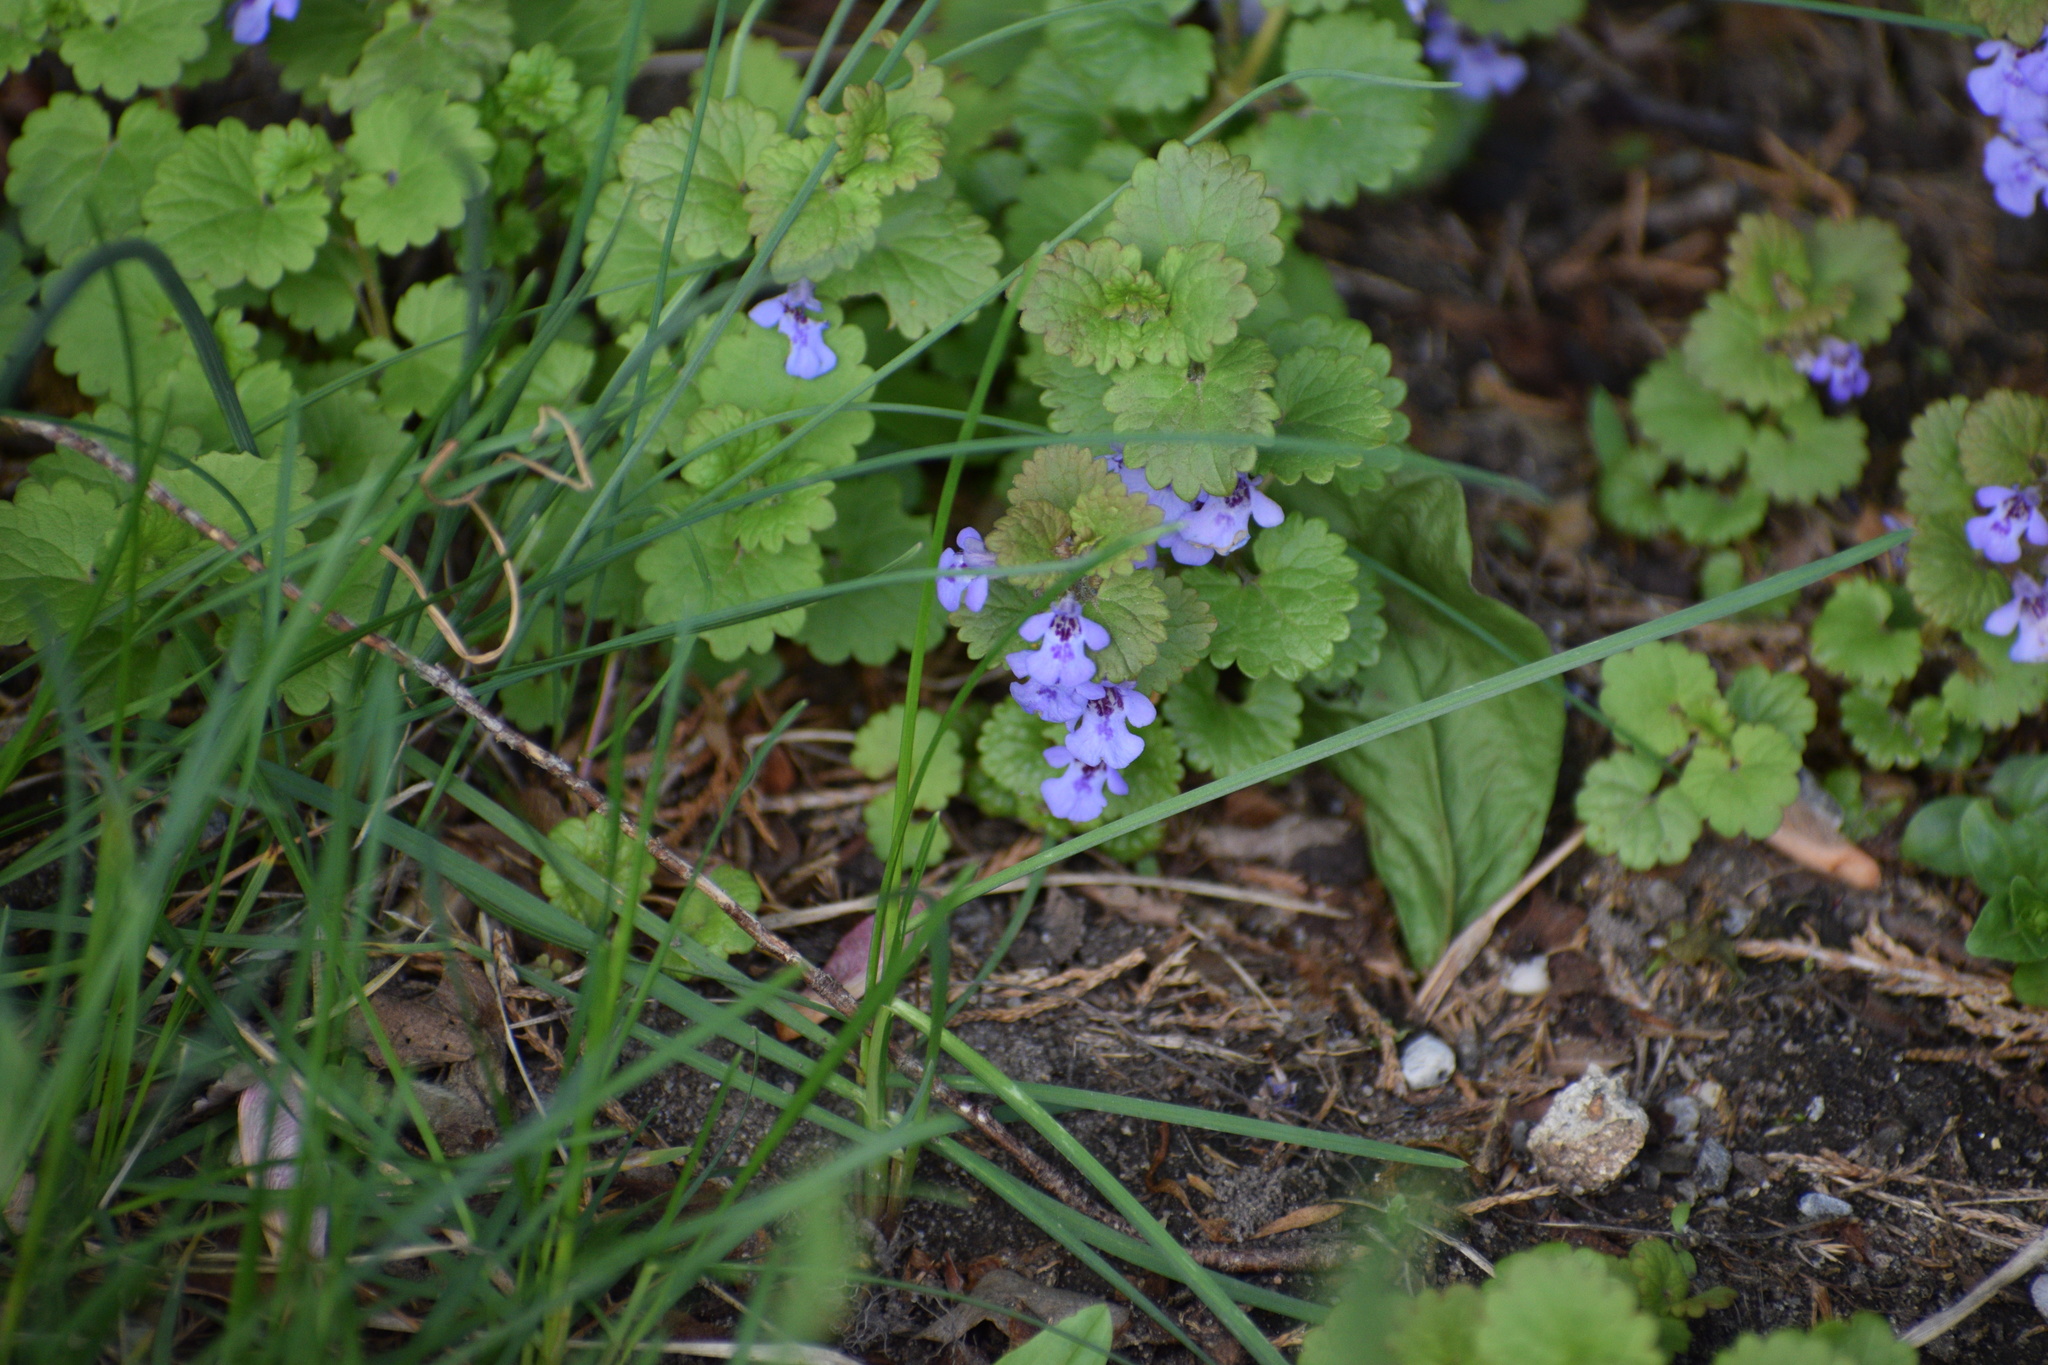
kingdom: Plantae
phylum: Tracheophyta
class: Magnoliopsida
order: Lamiales
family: Lamiaceae
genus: Glechoma
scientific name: Glechoma hederacea
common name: Ground ivy
